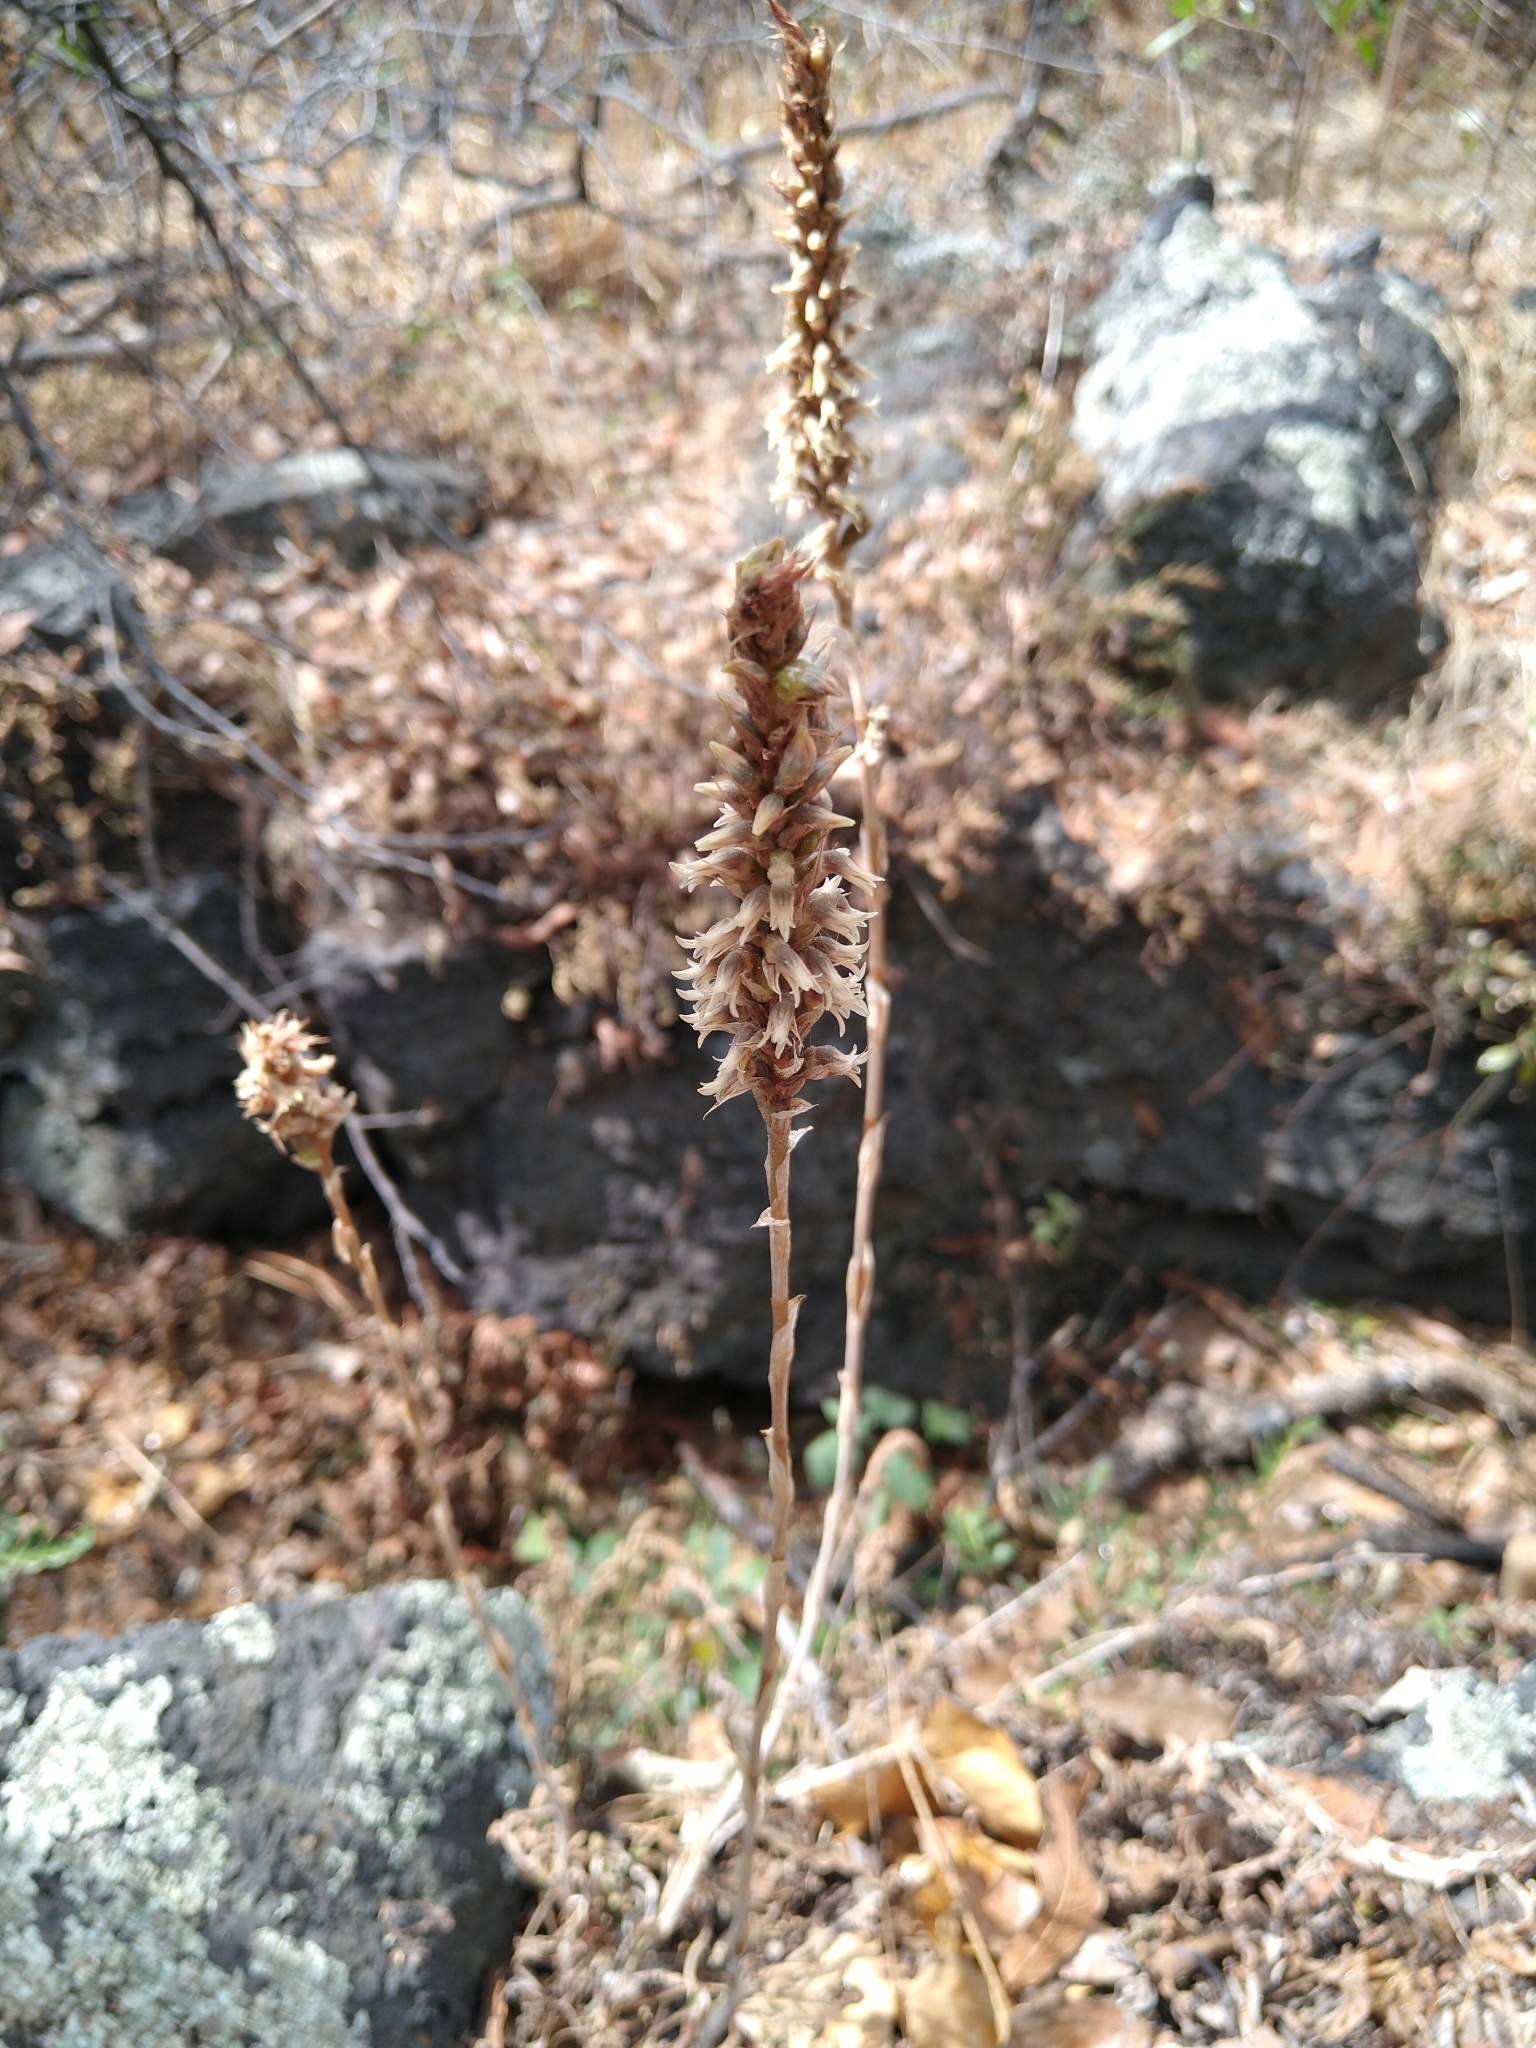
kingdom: Plantae
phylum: Tracheophyta
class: Liliopsida
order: Asparagales
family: Orchidaceae
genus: Aulosepalum
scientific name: Aulosepalum pyramidale
